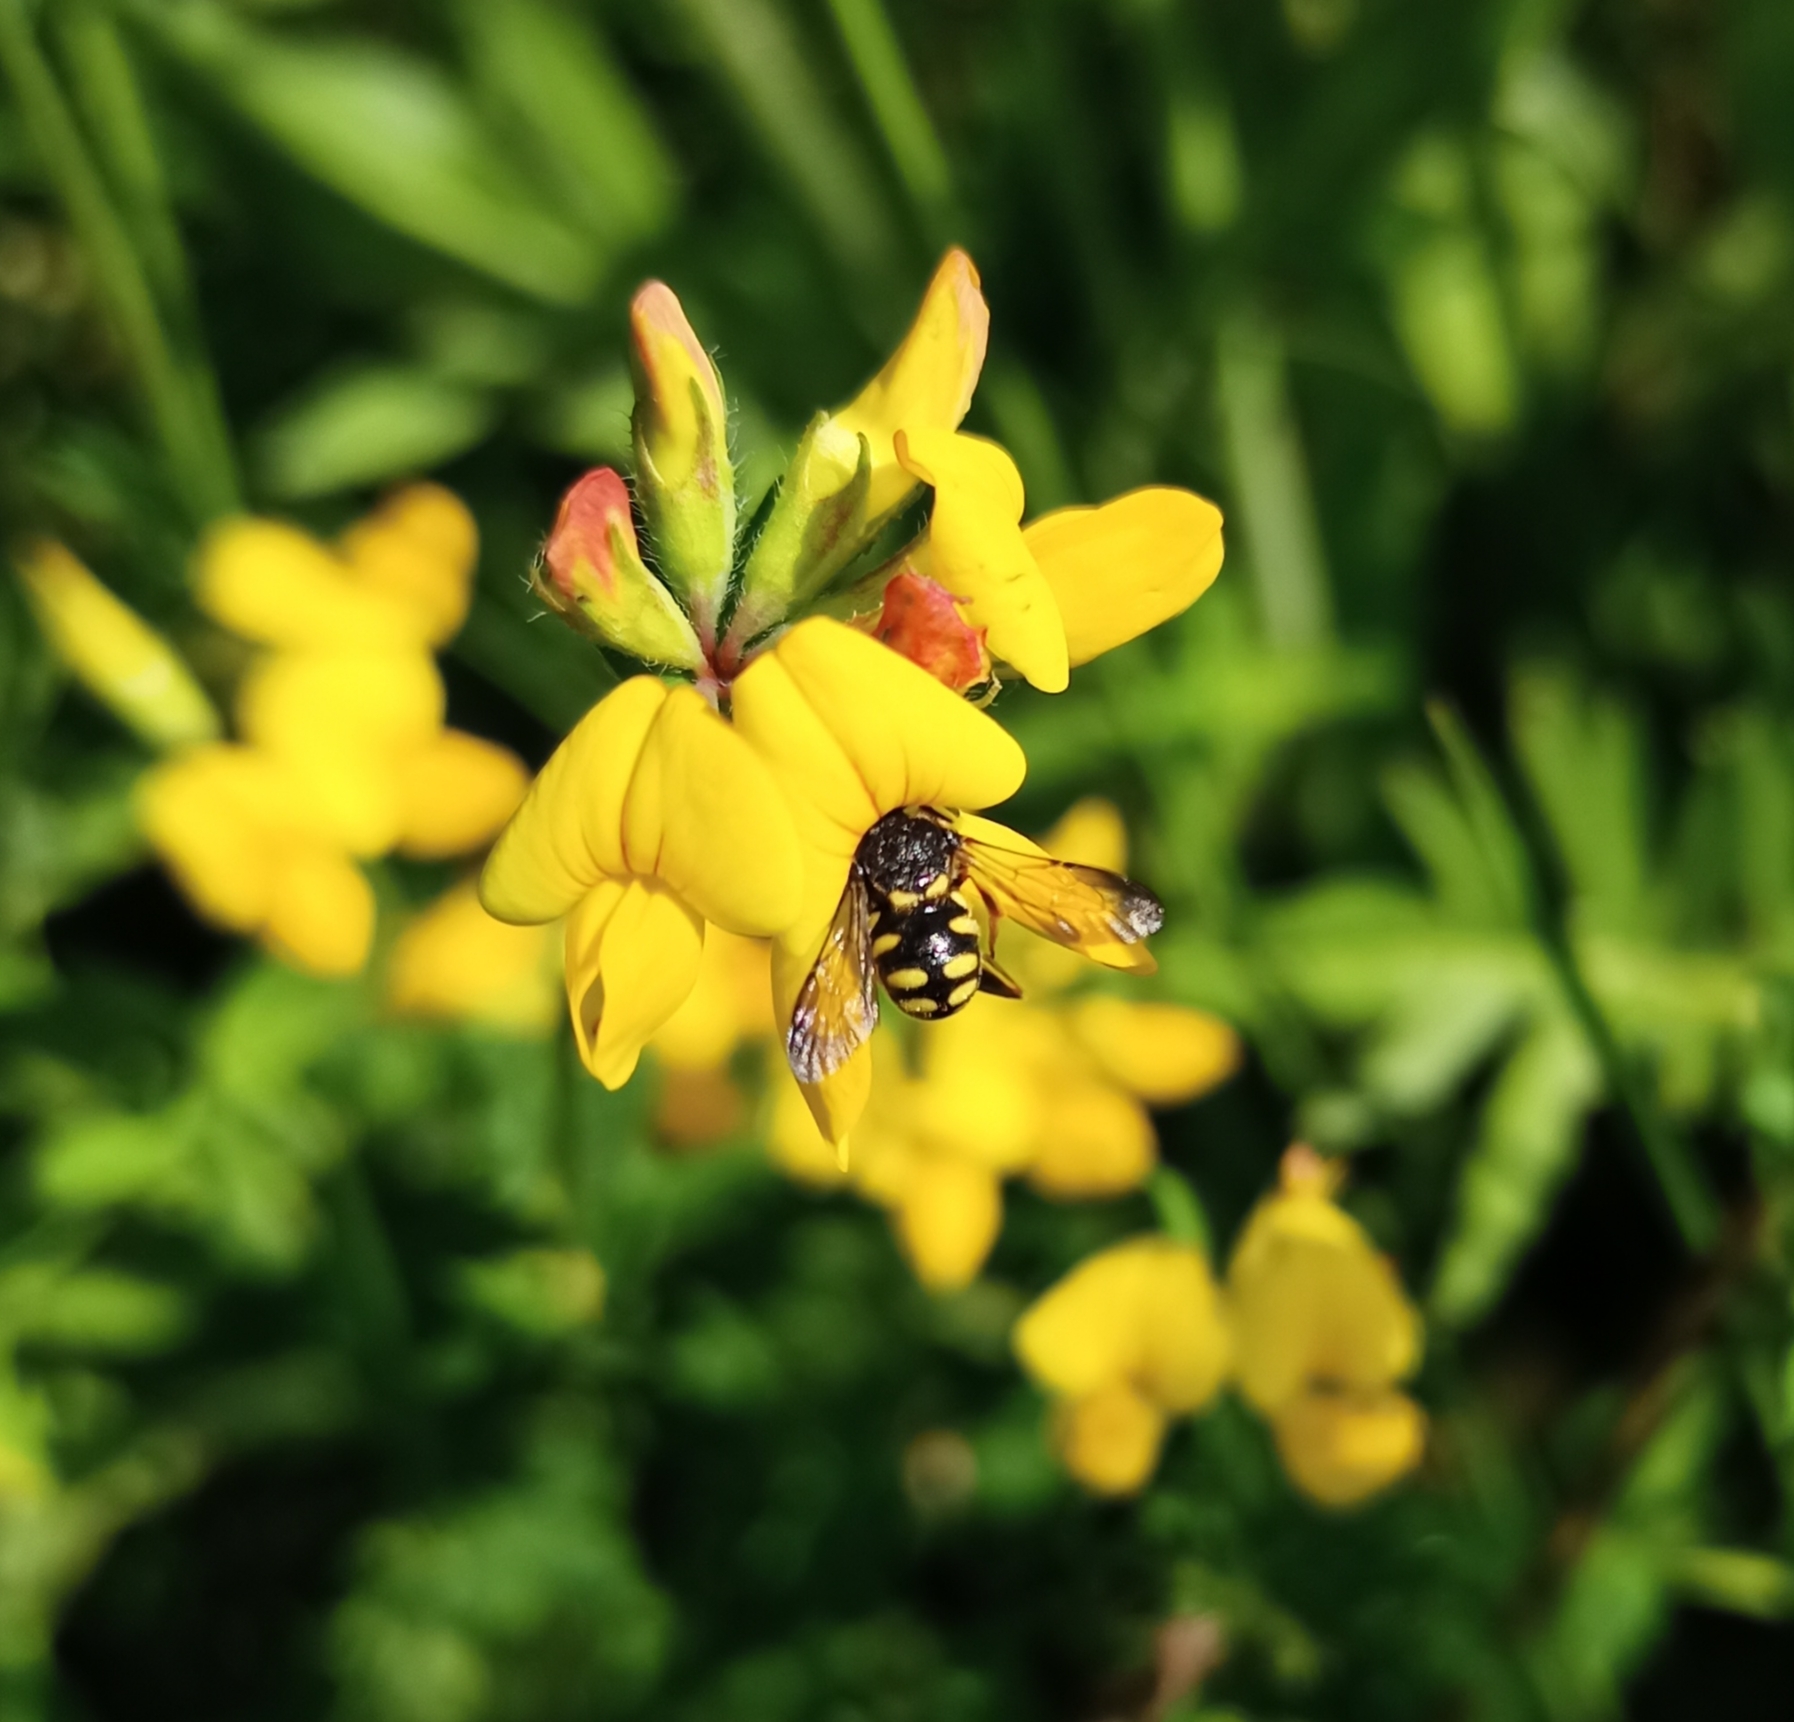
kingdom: Animalia
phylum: Arthropoda
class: Insecta
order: Hymenoptera
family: Megachilidae
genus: Anthidiellum
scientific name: Anthidiellum strigatum
